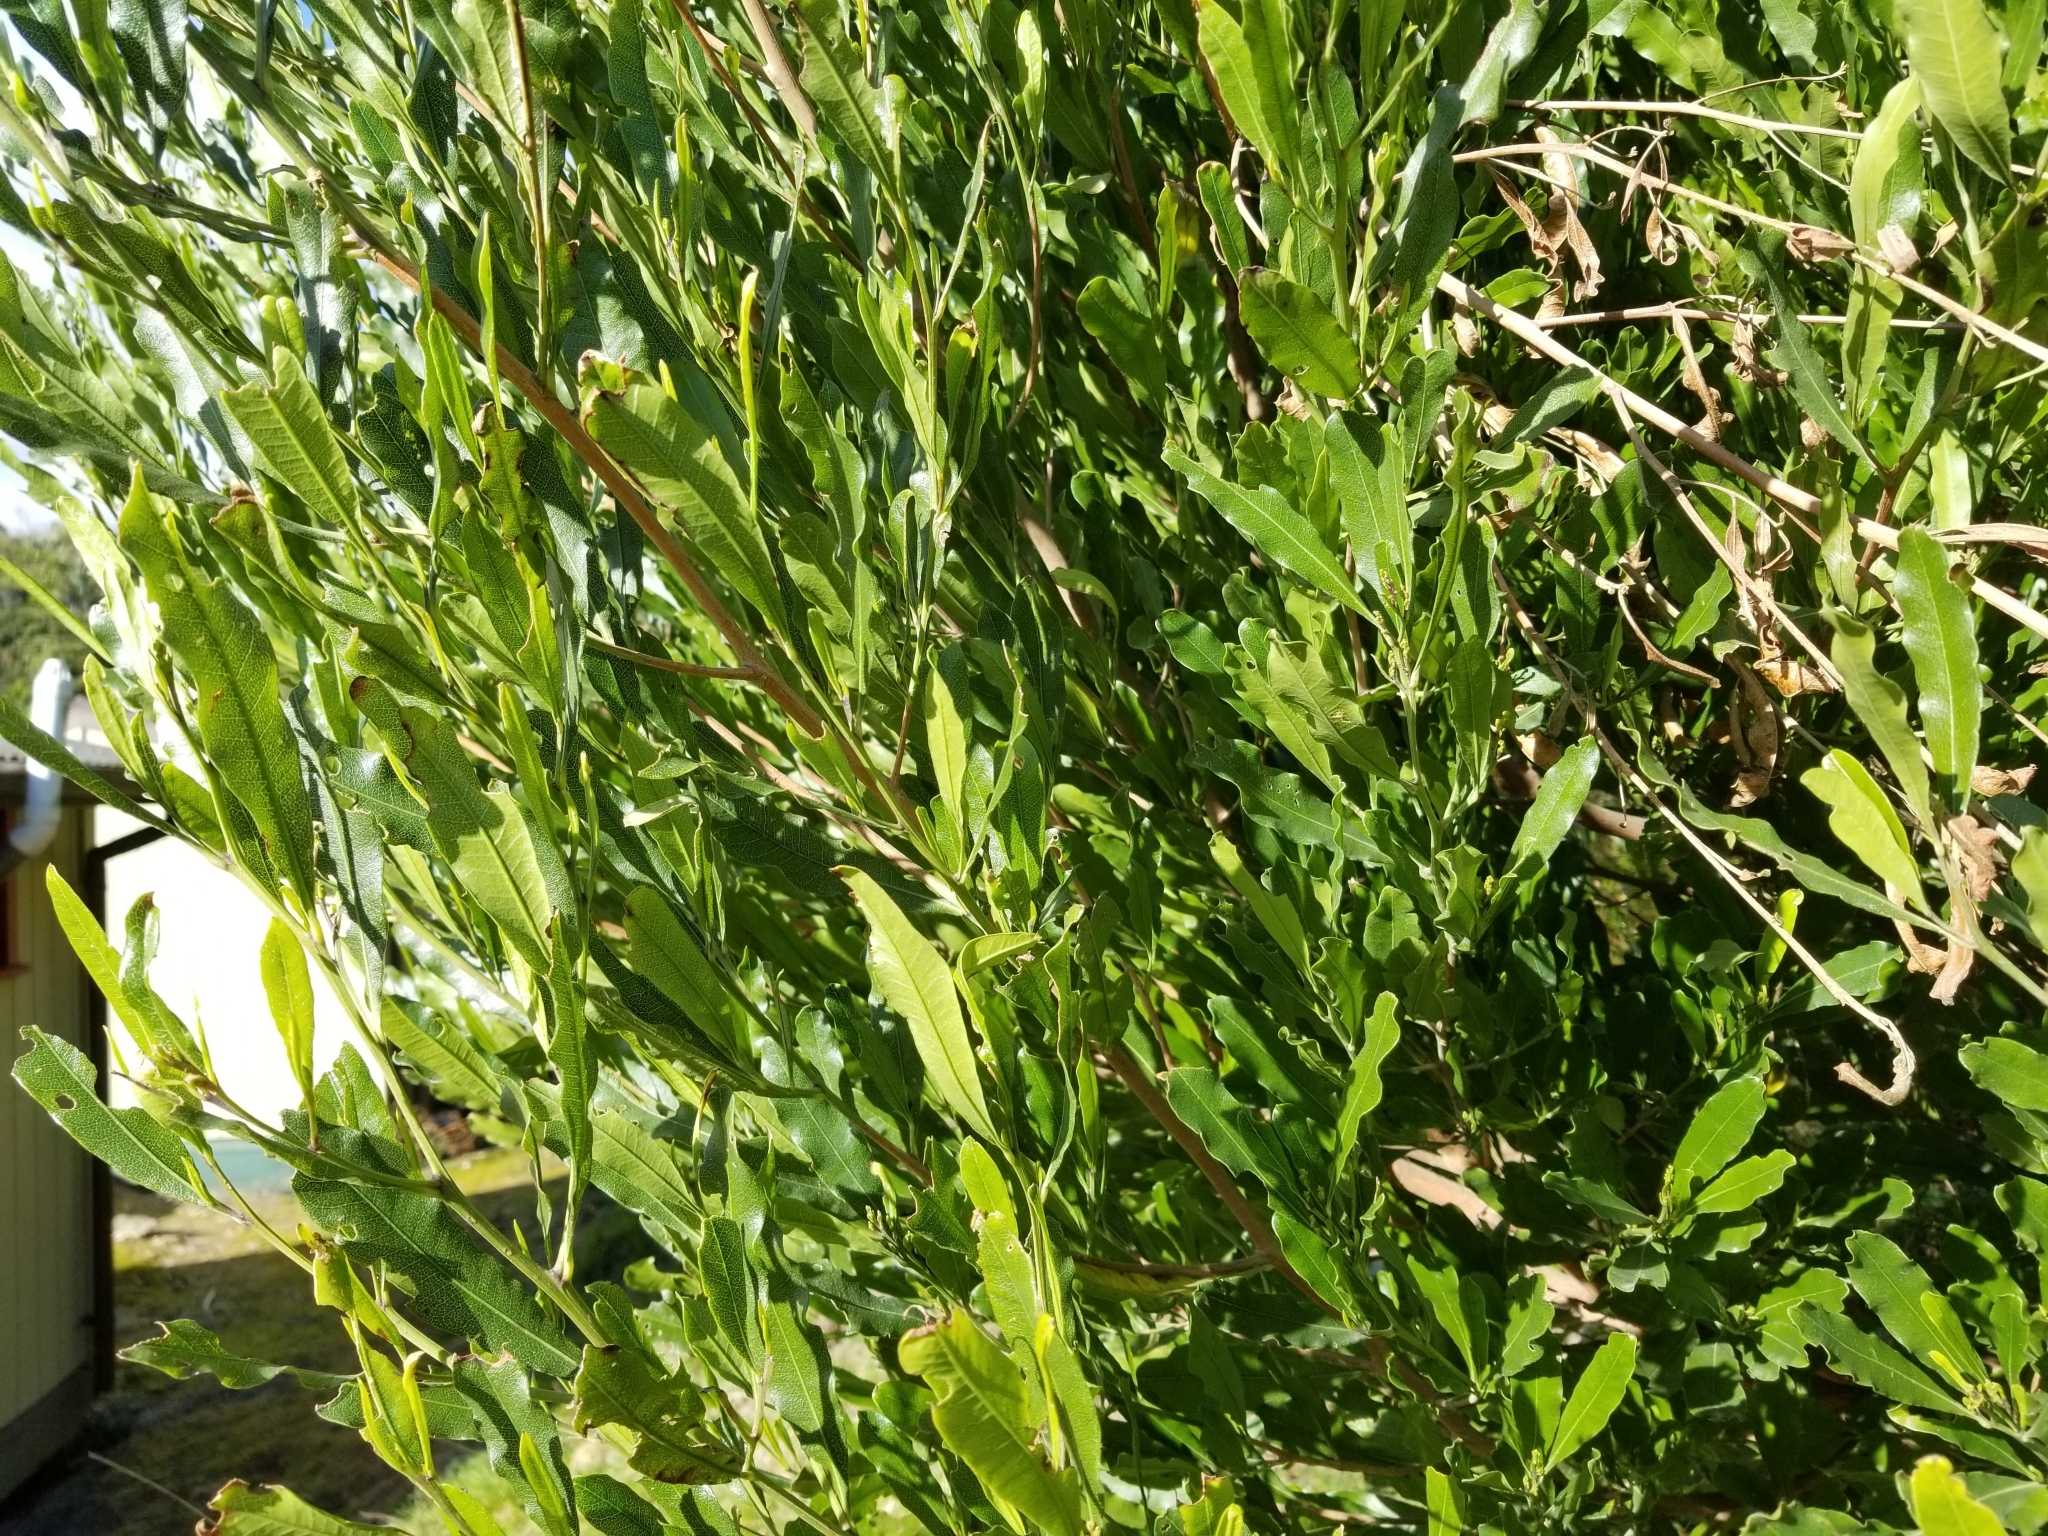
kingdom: Plantae
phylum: Tracheophyta
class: Magnoliopsida
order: Sapindales
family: Sapindaceae
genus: Dodonaea
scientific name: Dodonaea viscosa
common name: Hopbush
